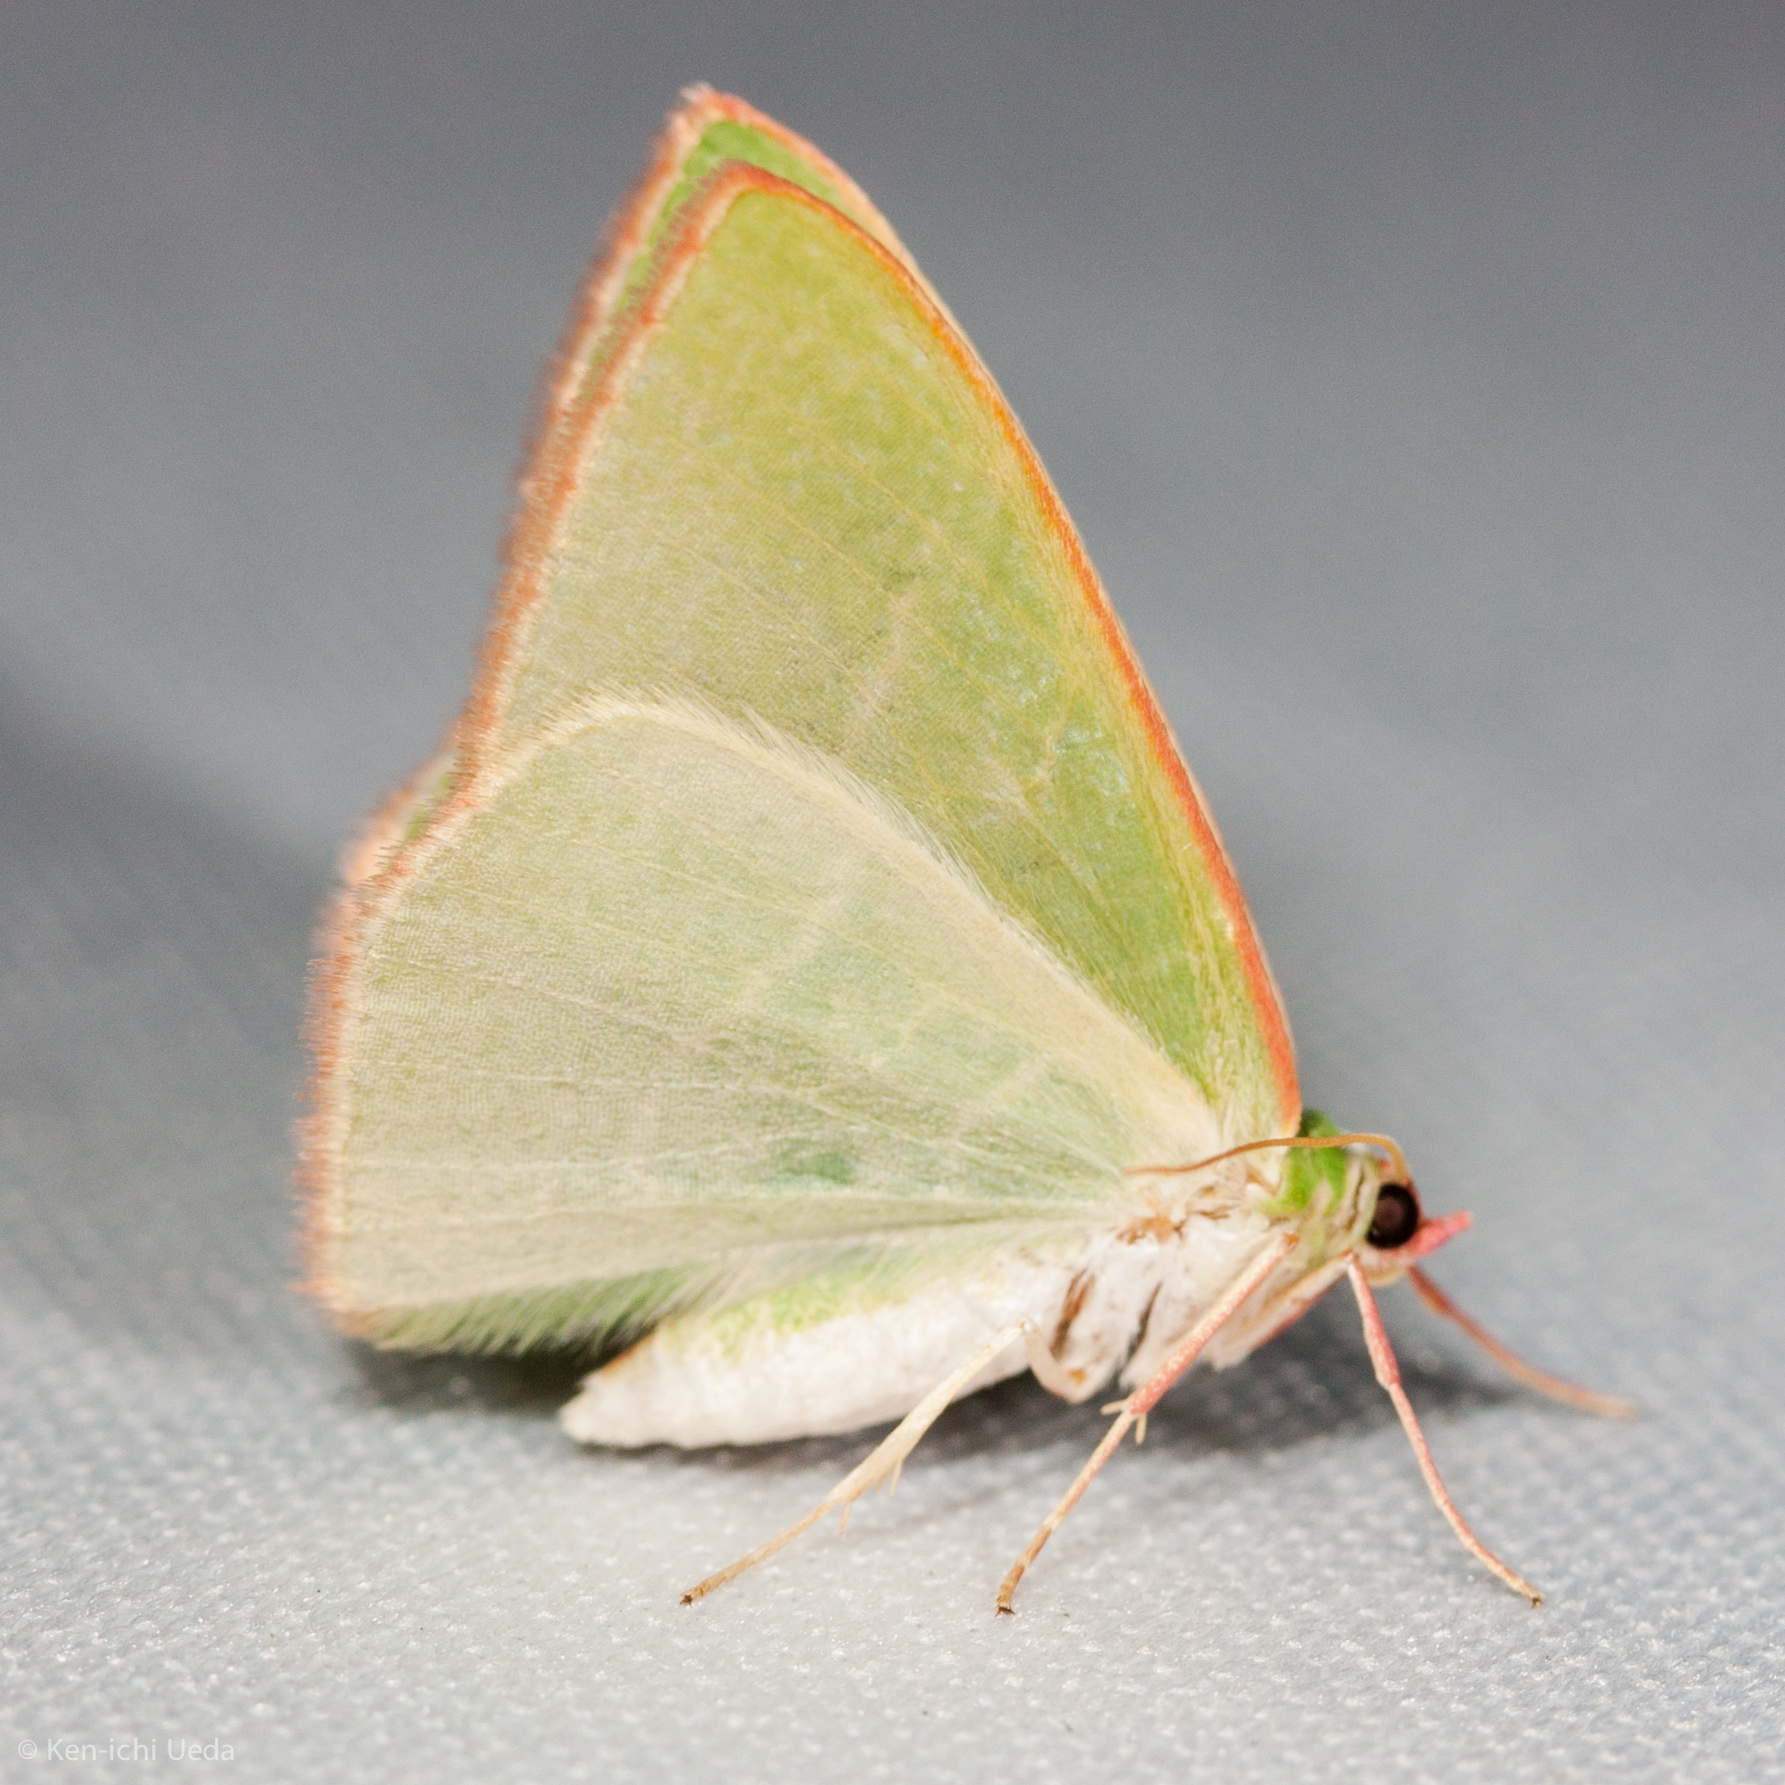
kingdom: Animalia
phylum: Arthropoda
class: Insecta
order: Lepidoptera
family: Geometridae
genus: Nemoria
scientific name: Nemoria leptalea
